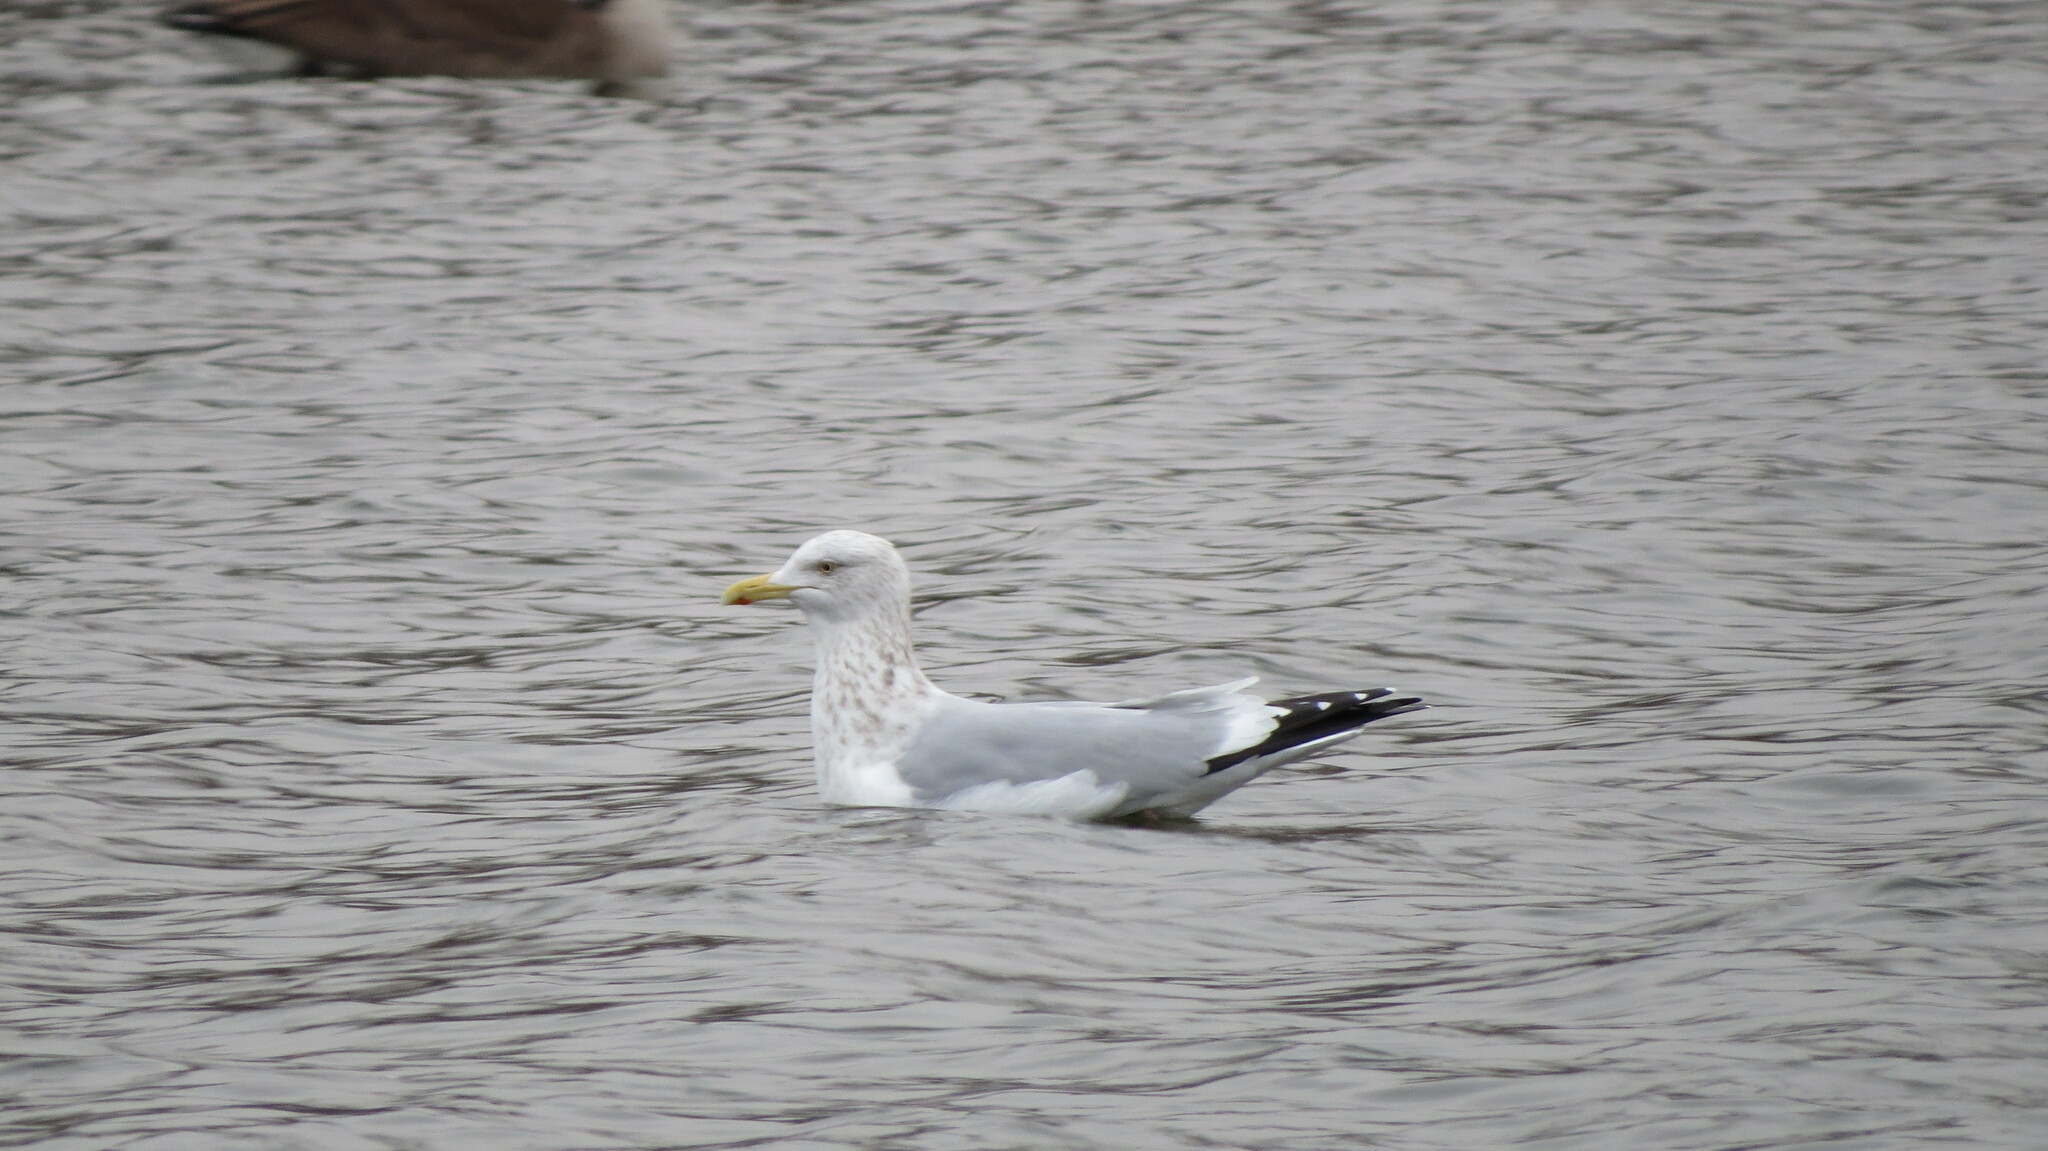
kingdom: Animalia
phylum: Chordata
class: Aves
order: Charadriiformes
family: Laridae
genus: Larus
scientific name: Larus smithsonianus
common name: American herring gull
